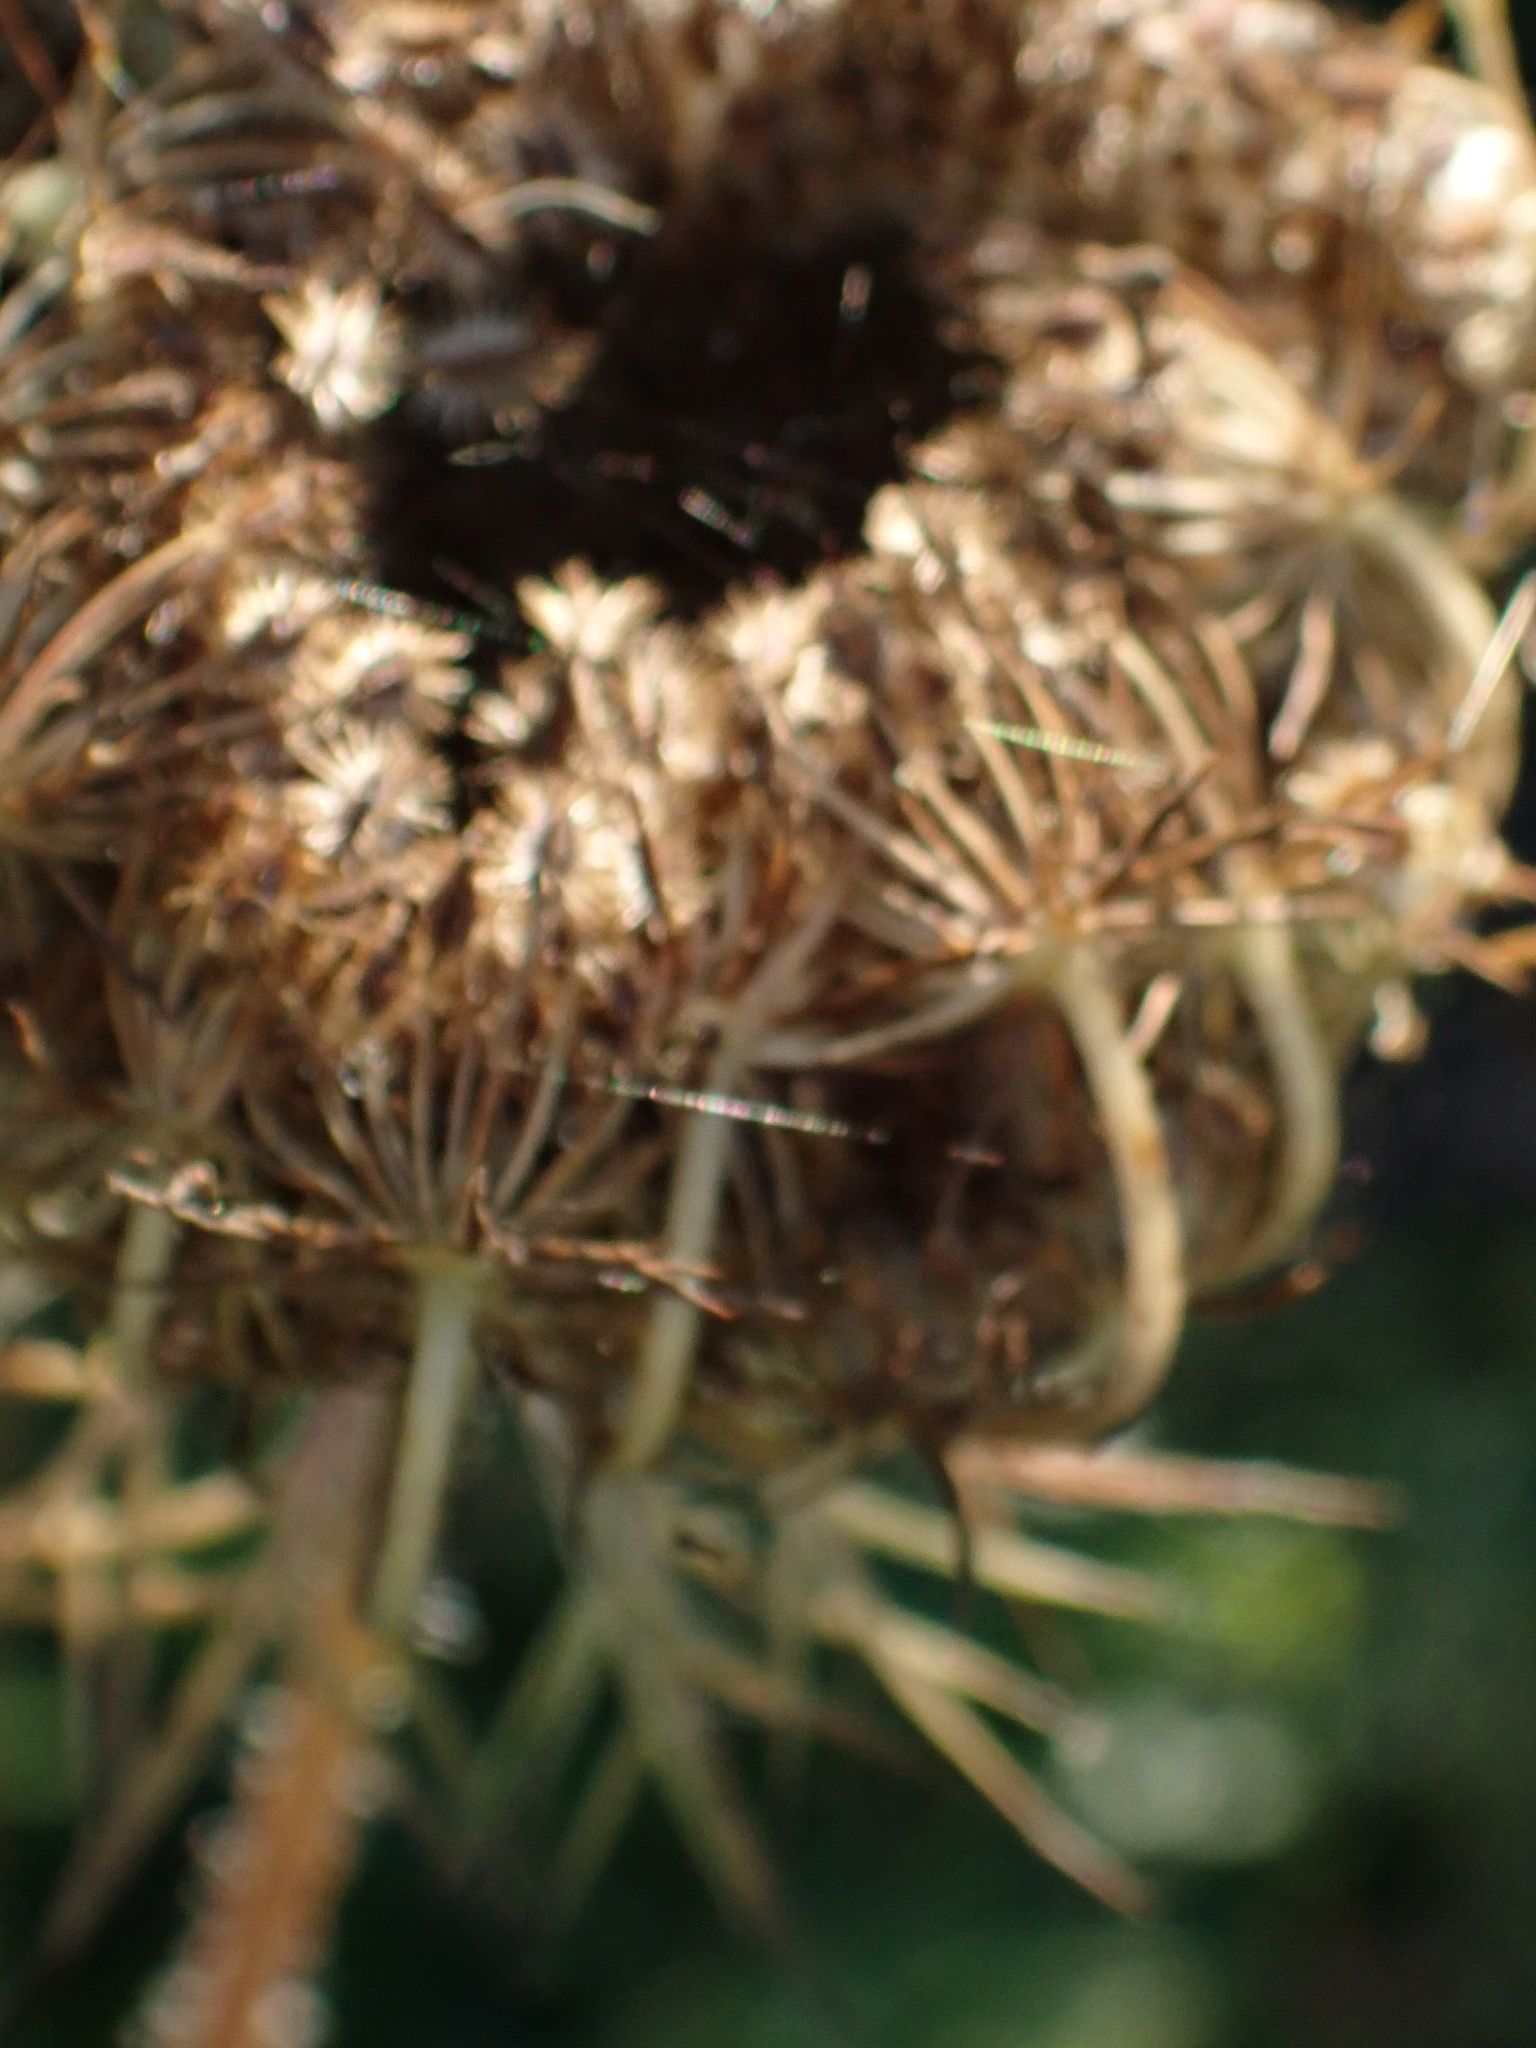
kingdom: Plantae
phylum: Tracheophyta
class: Magnoliopsida
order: Apiales
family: Apiaceae
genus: Daucus
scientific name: Daucus carota
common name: Wild carrot
